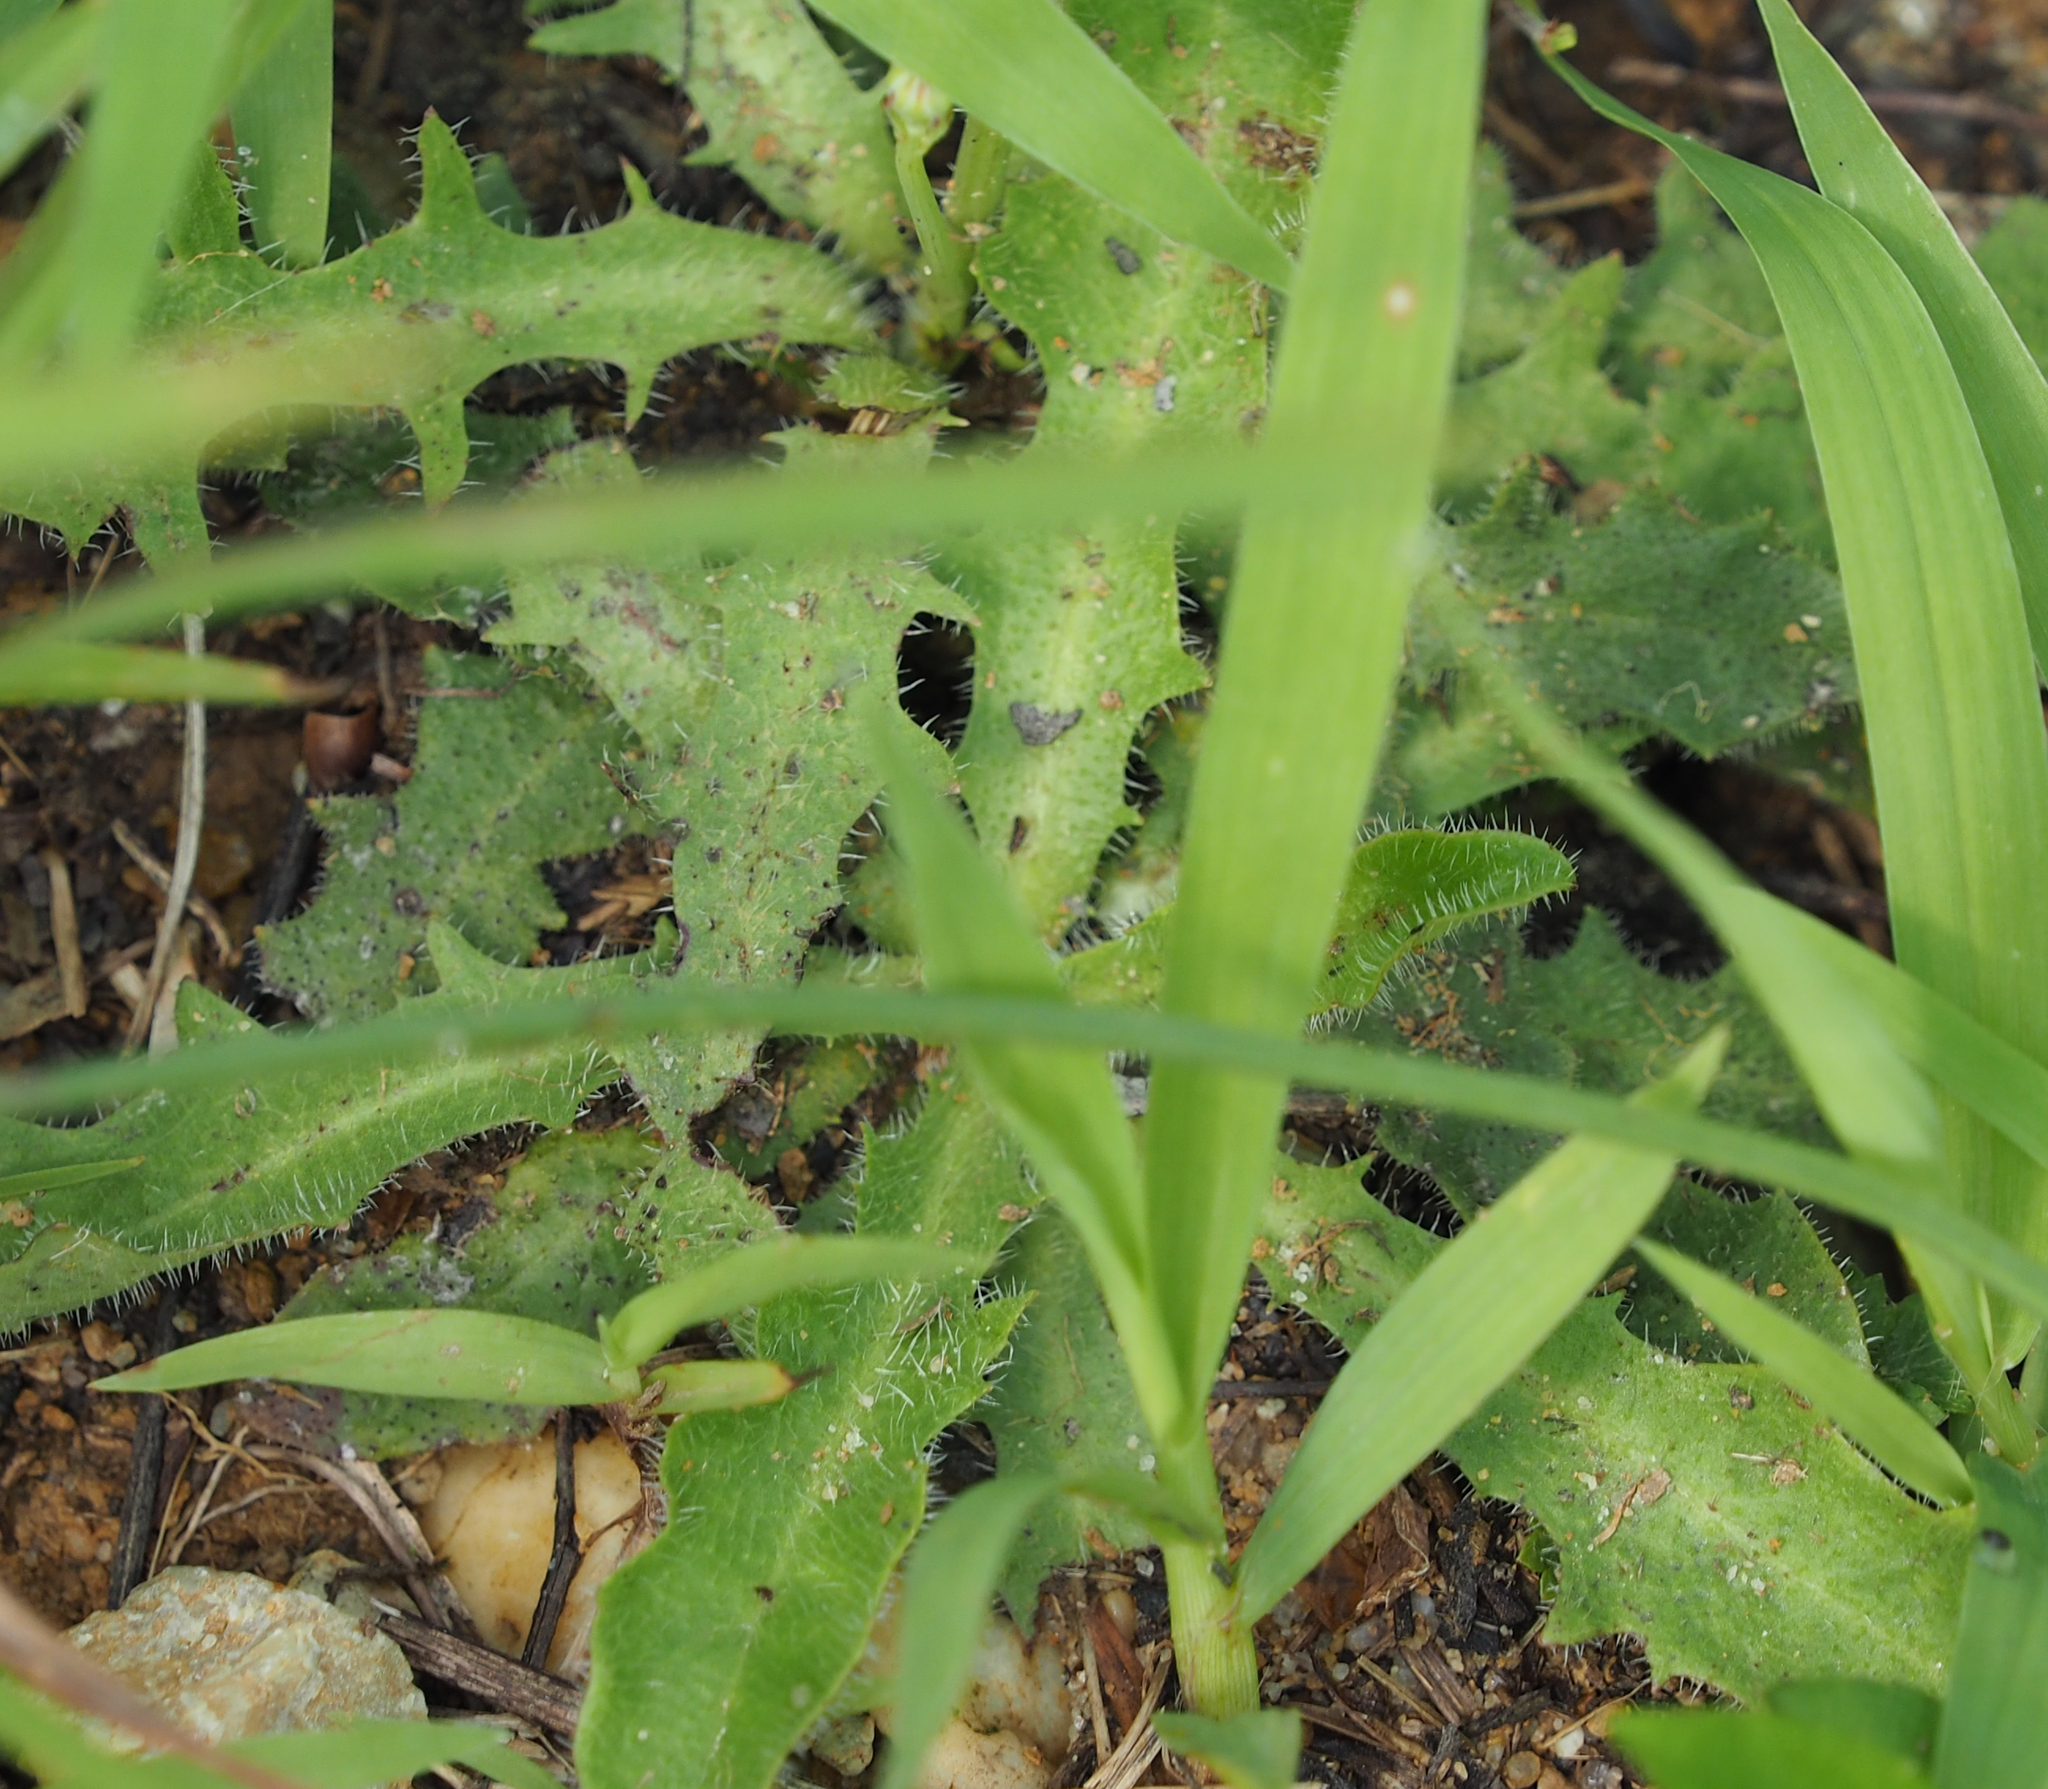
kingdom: Plantae
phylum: Tracheophyta
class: Magnoliopsida
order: Asterales
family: Asteraceae
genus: Hypochaeris
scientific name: Hypochaeris radicata
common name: Flatweed
